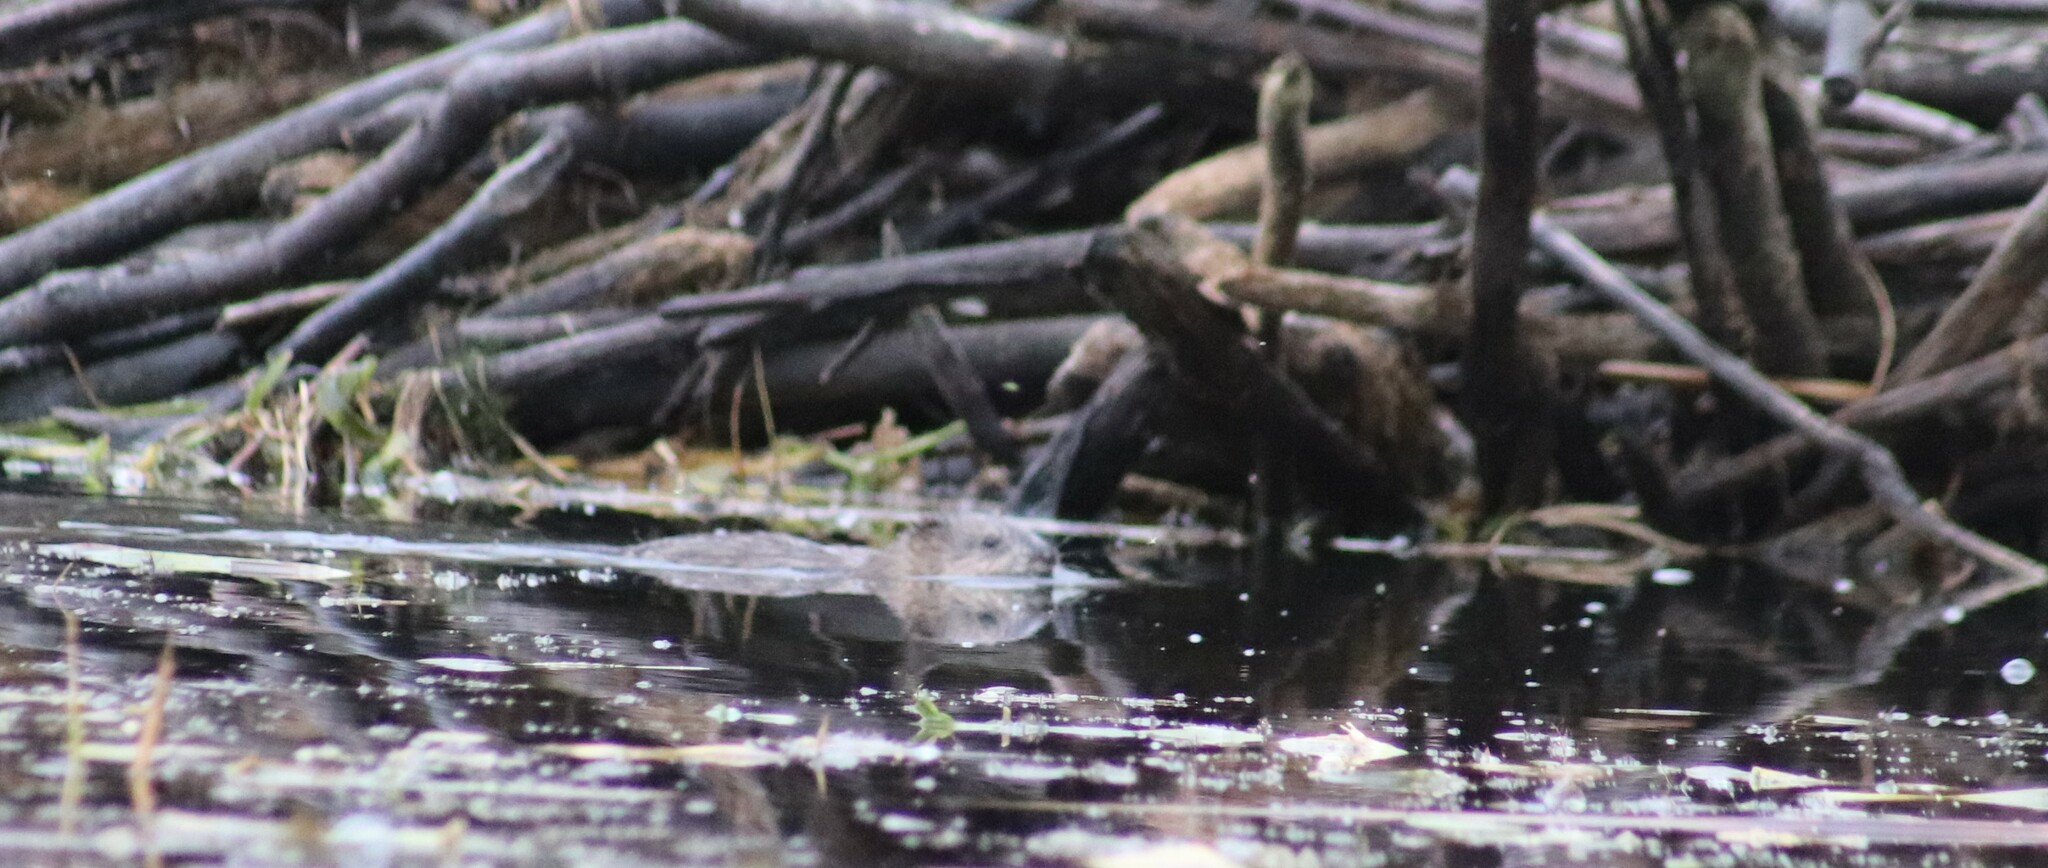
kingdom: Animalia
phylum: Chordata
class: Mammalia
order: Rodentia
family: Cricetidae
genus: Ondatra
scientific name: Ondatra zibethicus
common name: Muskrat
